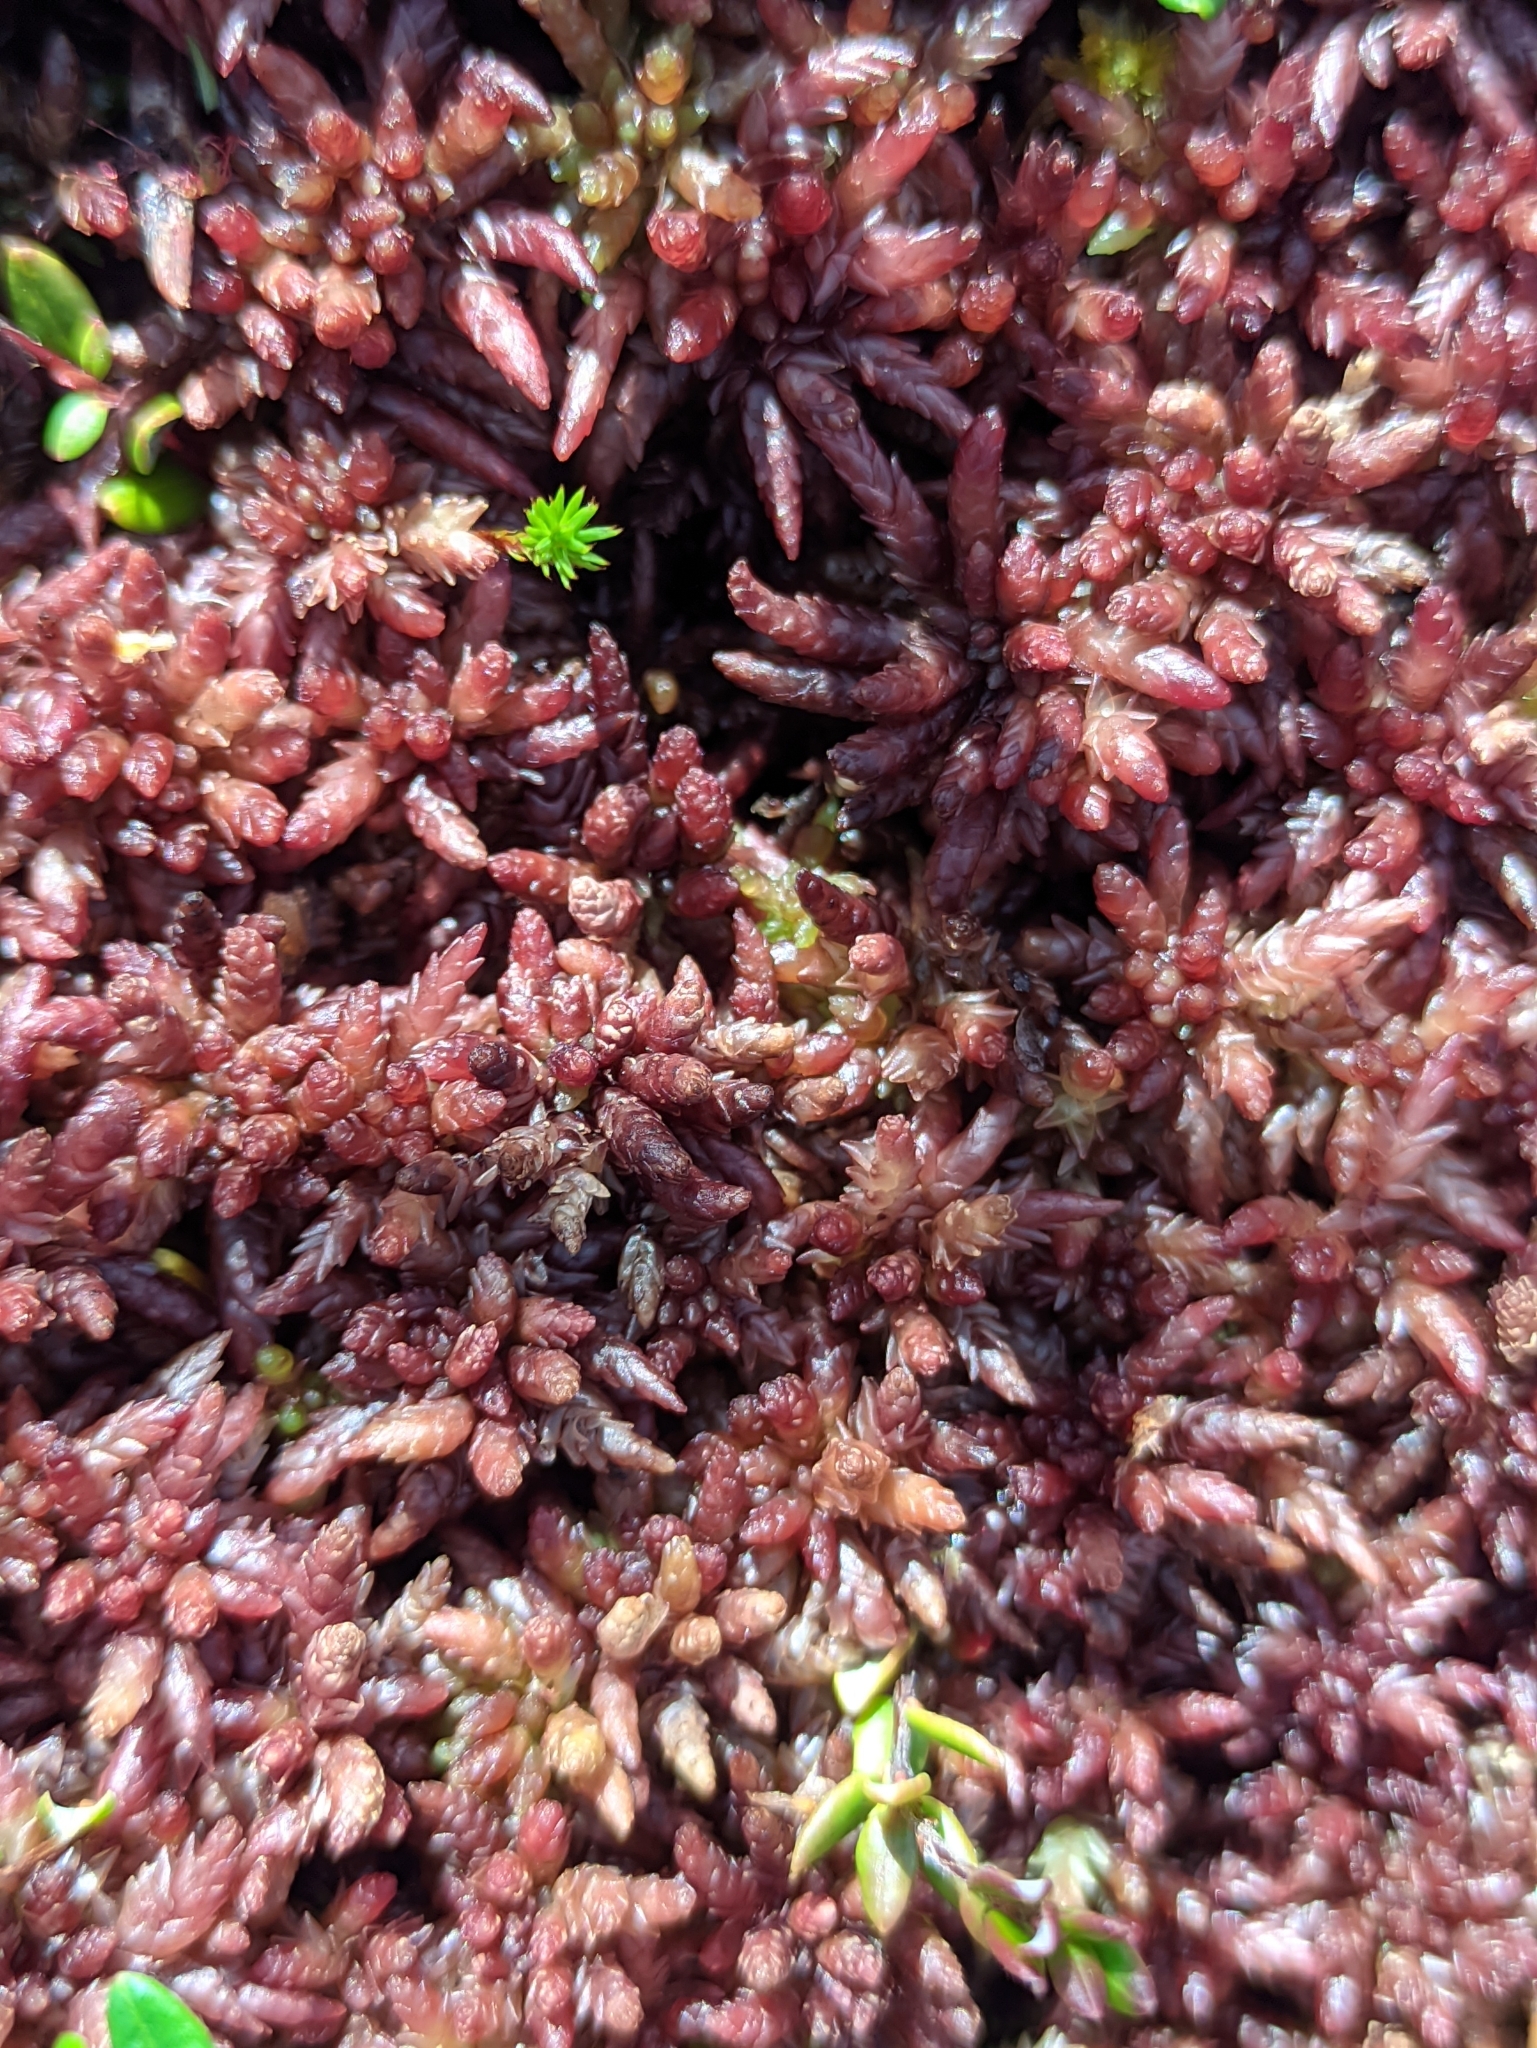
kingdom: Plantae
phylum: Bryophyta
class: Sphagnopsida
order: Sphagnales
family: Sphagnaceae
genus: Sphagnum
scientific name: Sphagnum divinum
